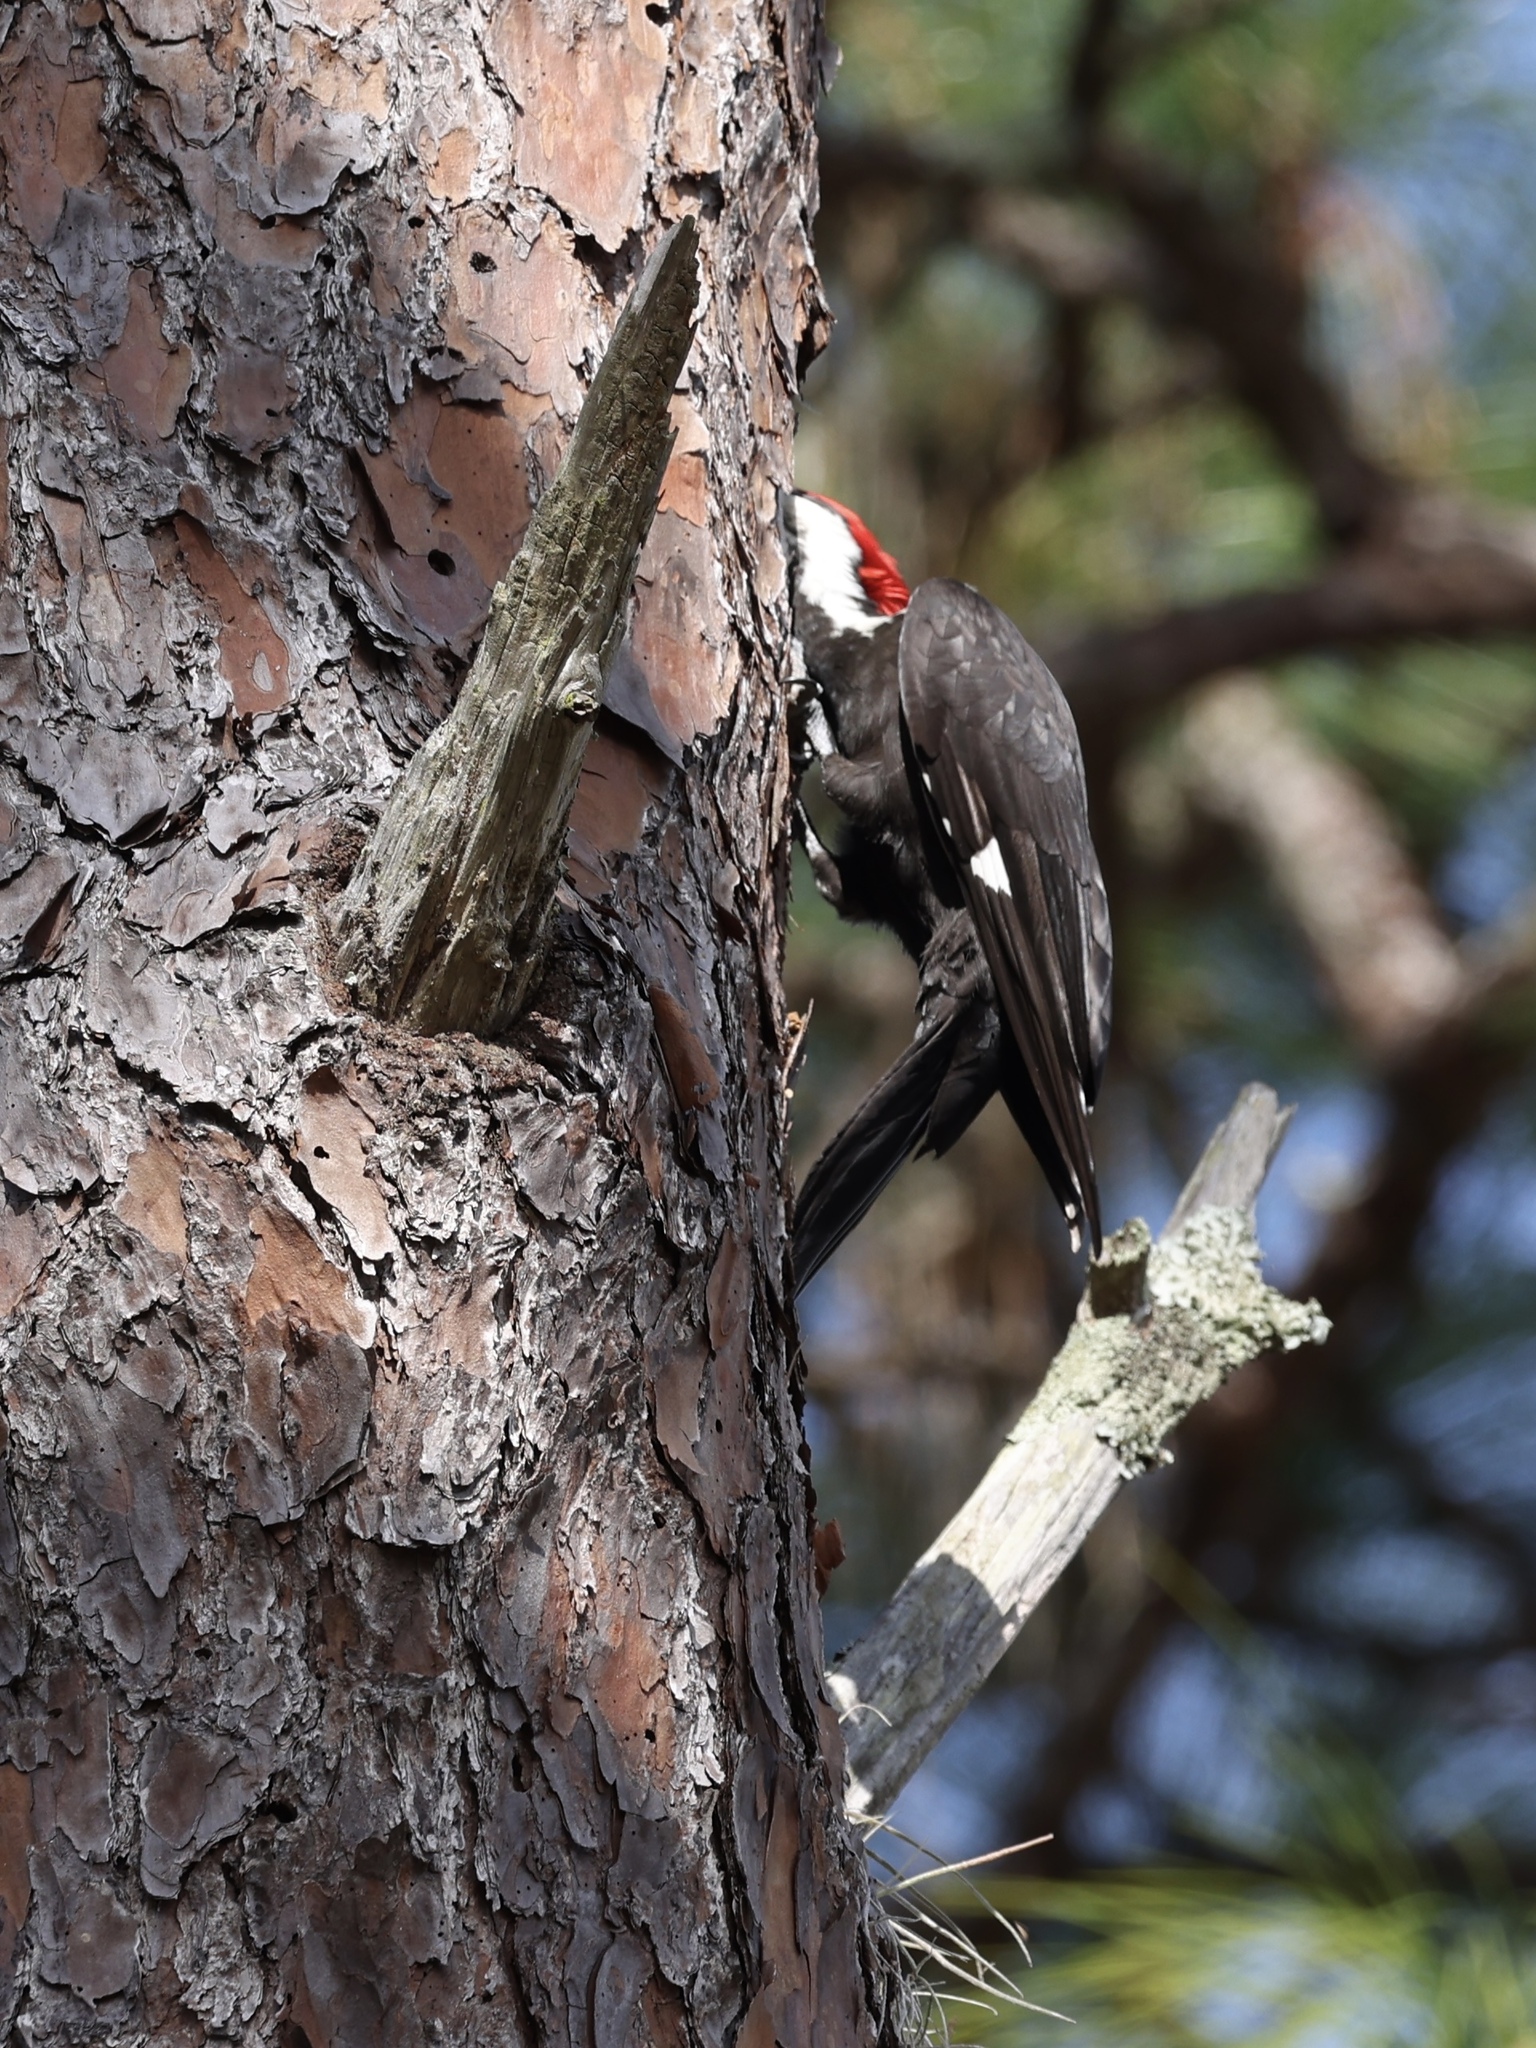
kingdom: Animalia
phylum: Chordata
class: Aves
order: Piciformes
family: Picidae
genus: Dryocopus
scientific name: Dryocopus pileatus
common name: Pileated woodpecker
